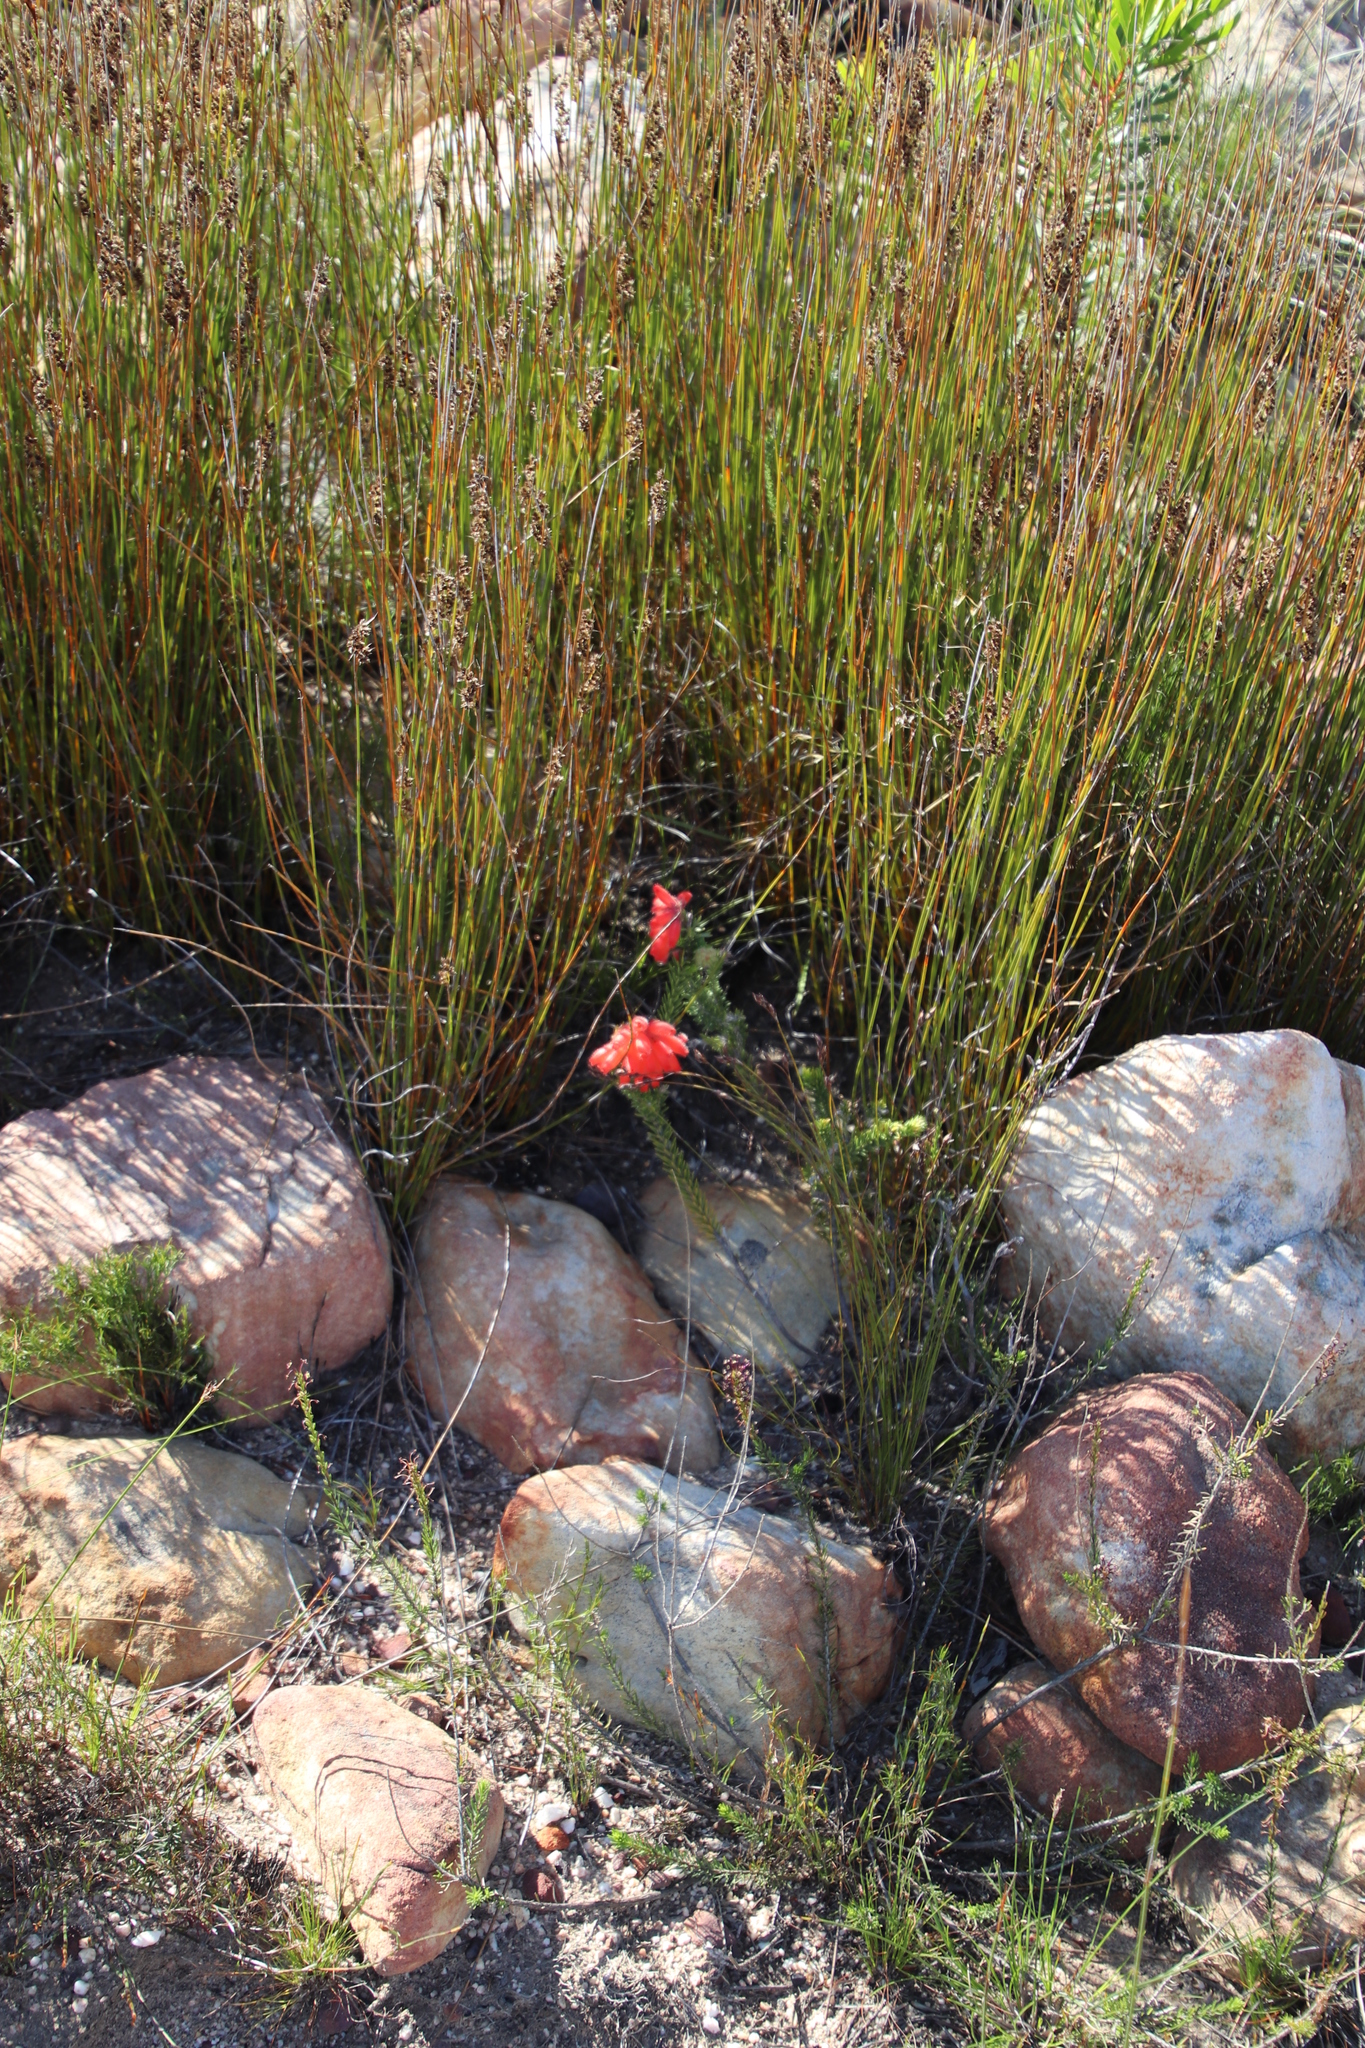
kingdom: Plantae
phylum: Tracheophyta
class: Magnoliopsida
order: Ericales
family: Ericaceae
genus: Erica
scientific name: Erica cerinthoides
